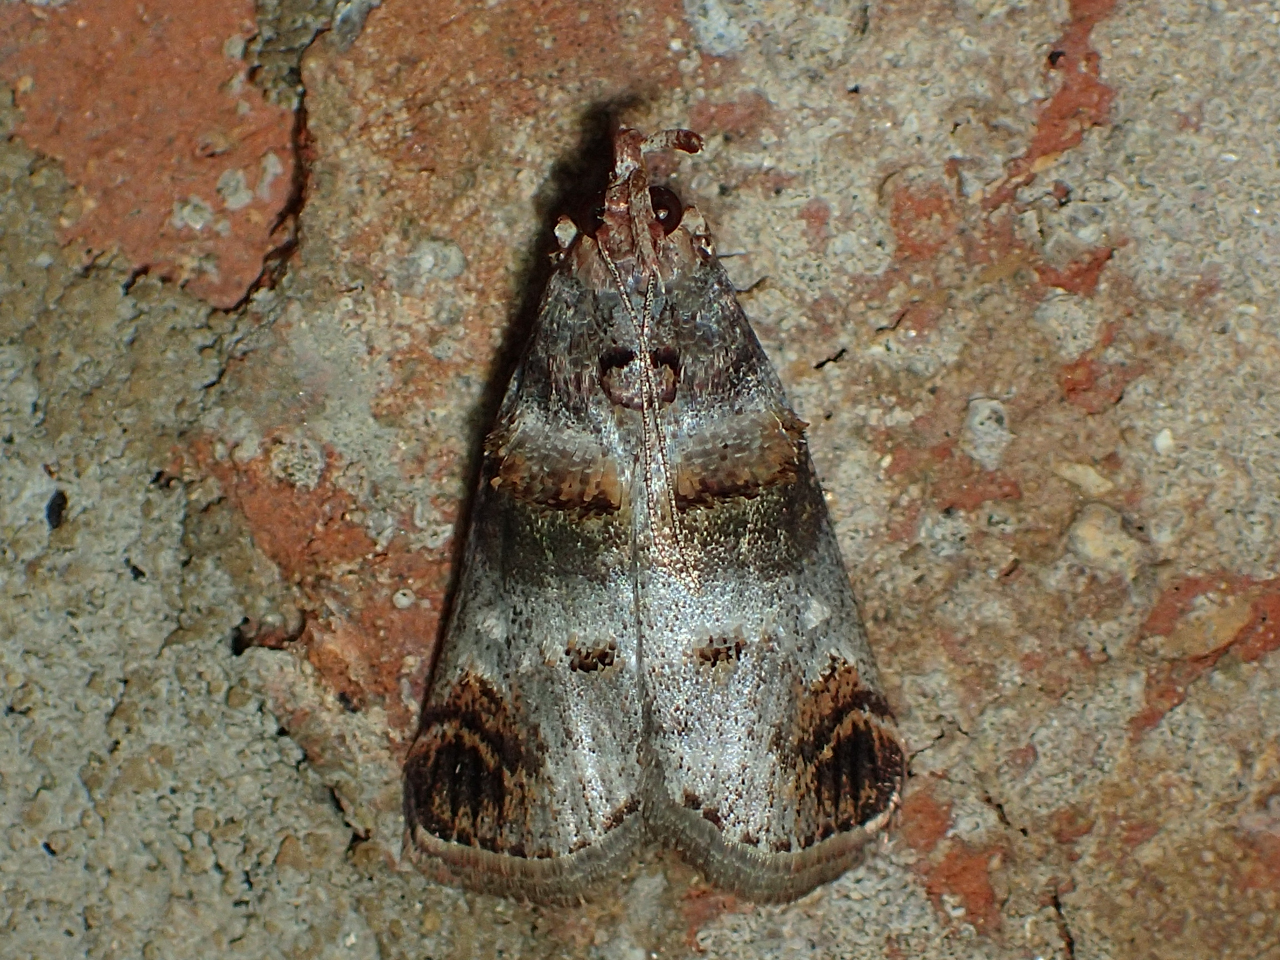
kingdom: Animalia
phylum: Arthropoda
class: Insecta
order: Lepidoptera
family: Pyralidae
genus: Oneida
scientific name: Oneida lunulalis
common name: Orange-tufted oneida moth
